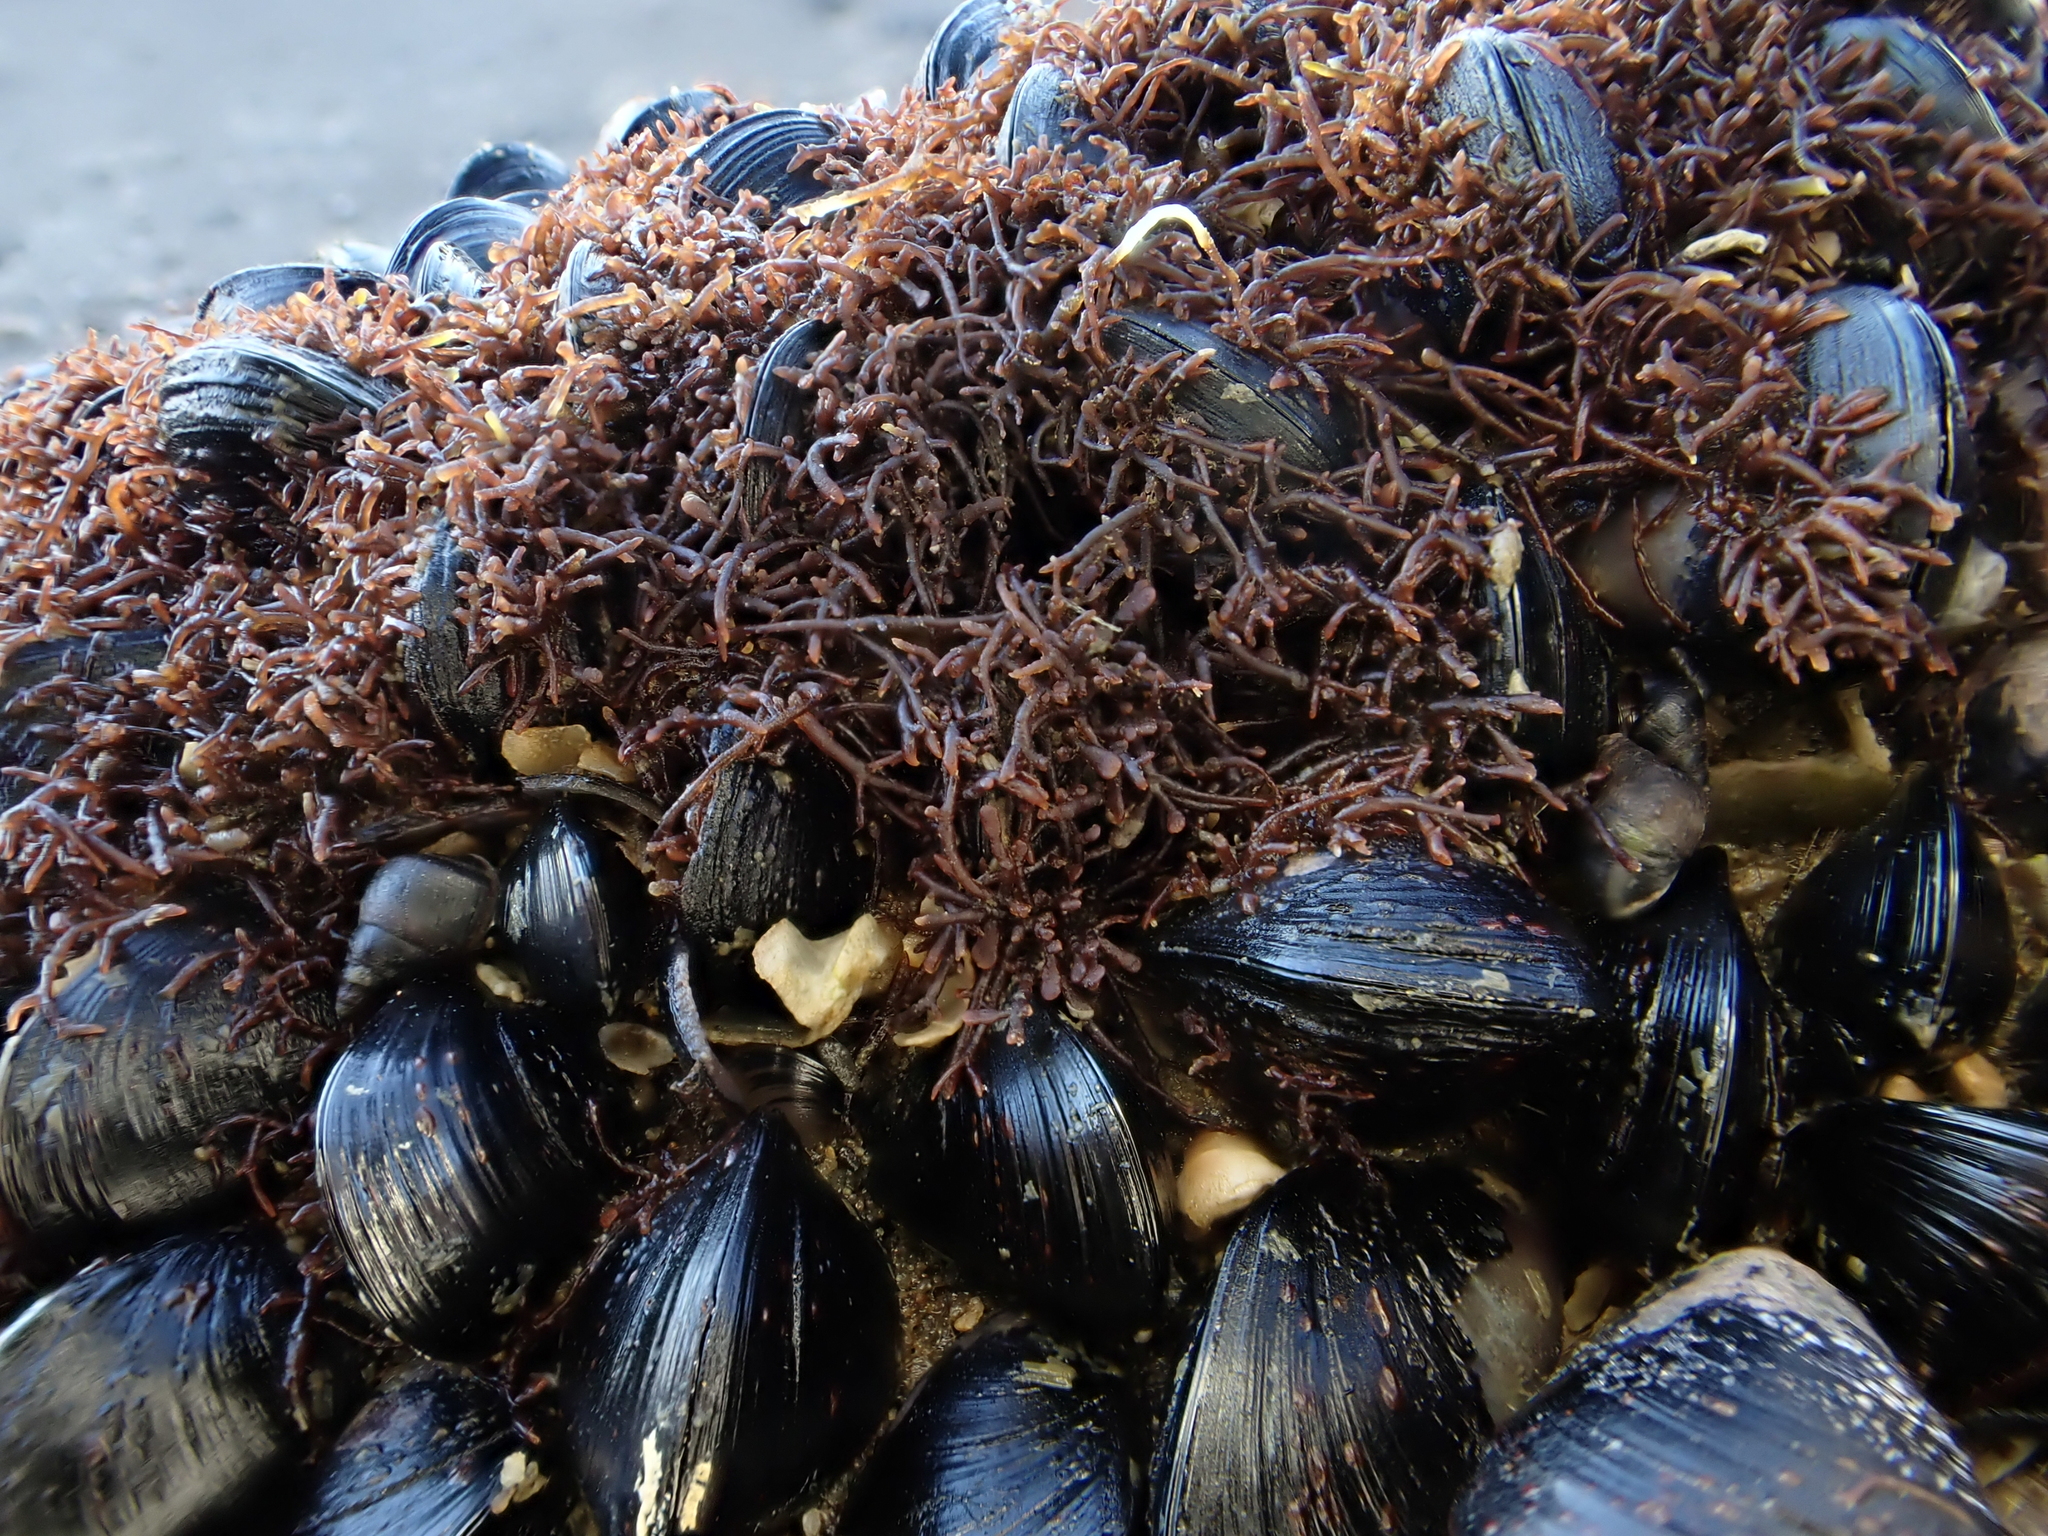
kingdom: Animalia
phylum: Mollusca
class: Bivalvia
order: Mytilida
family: Mytilidae
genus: Xenostrobus
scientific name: Xenostrobus neozelanicus
